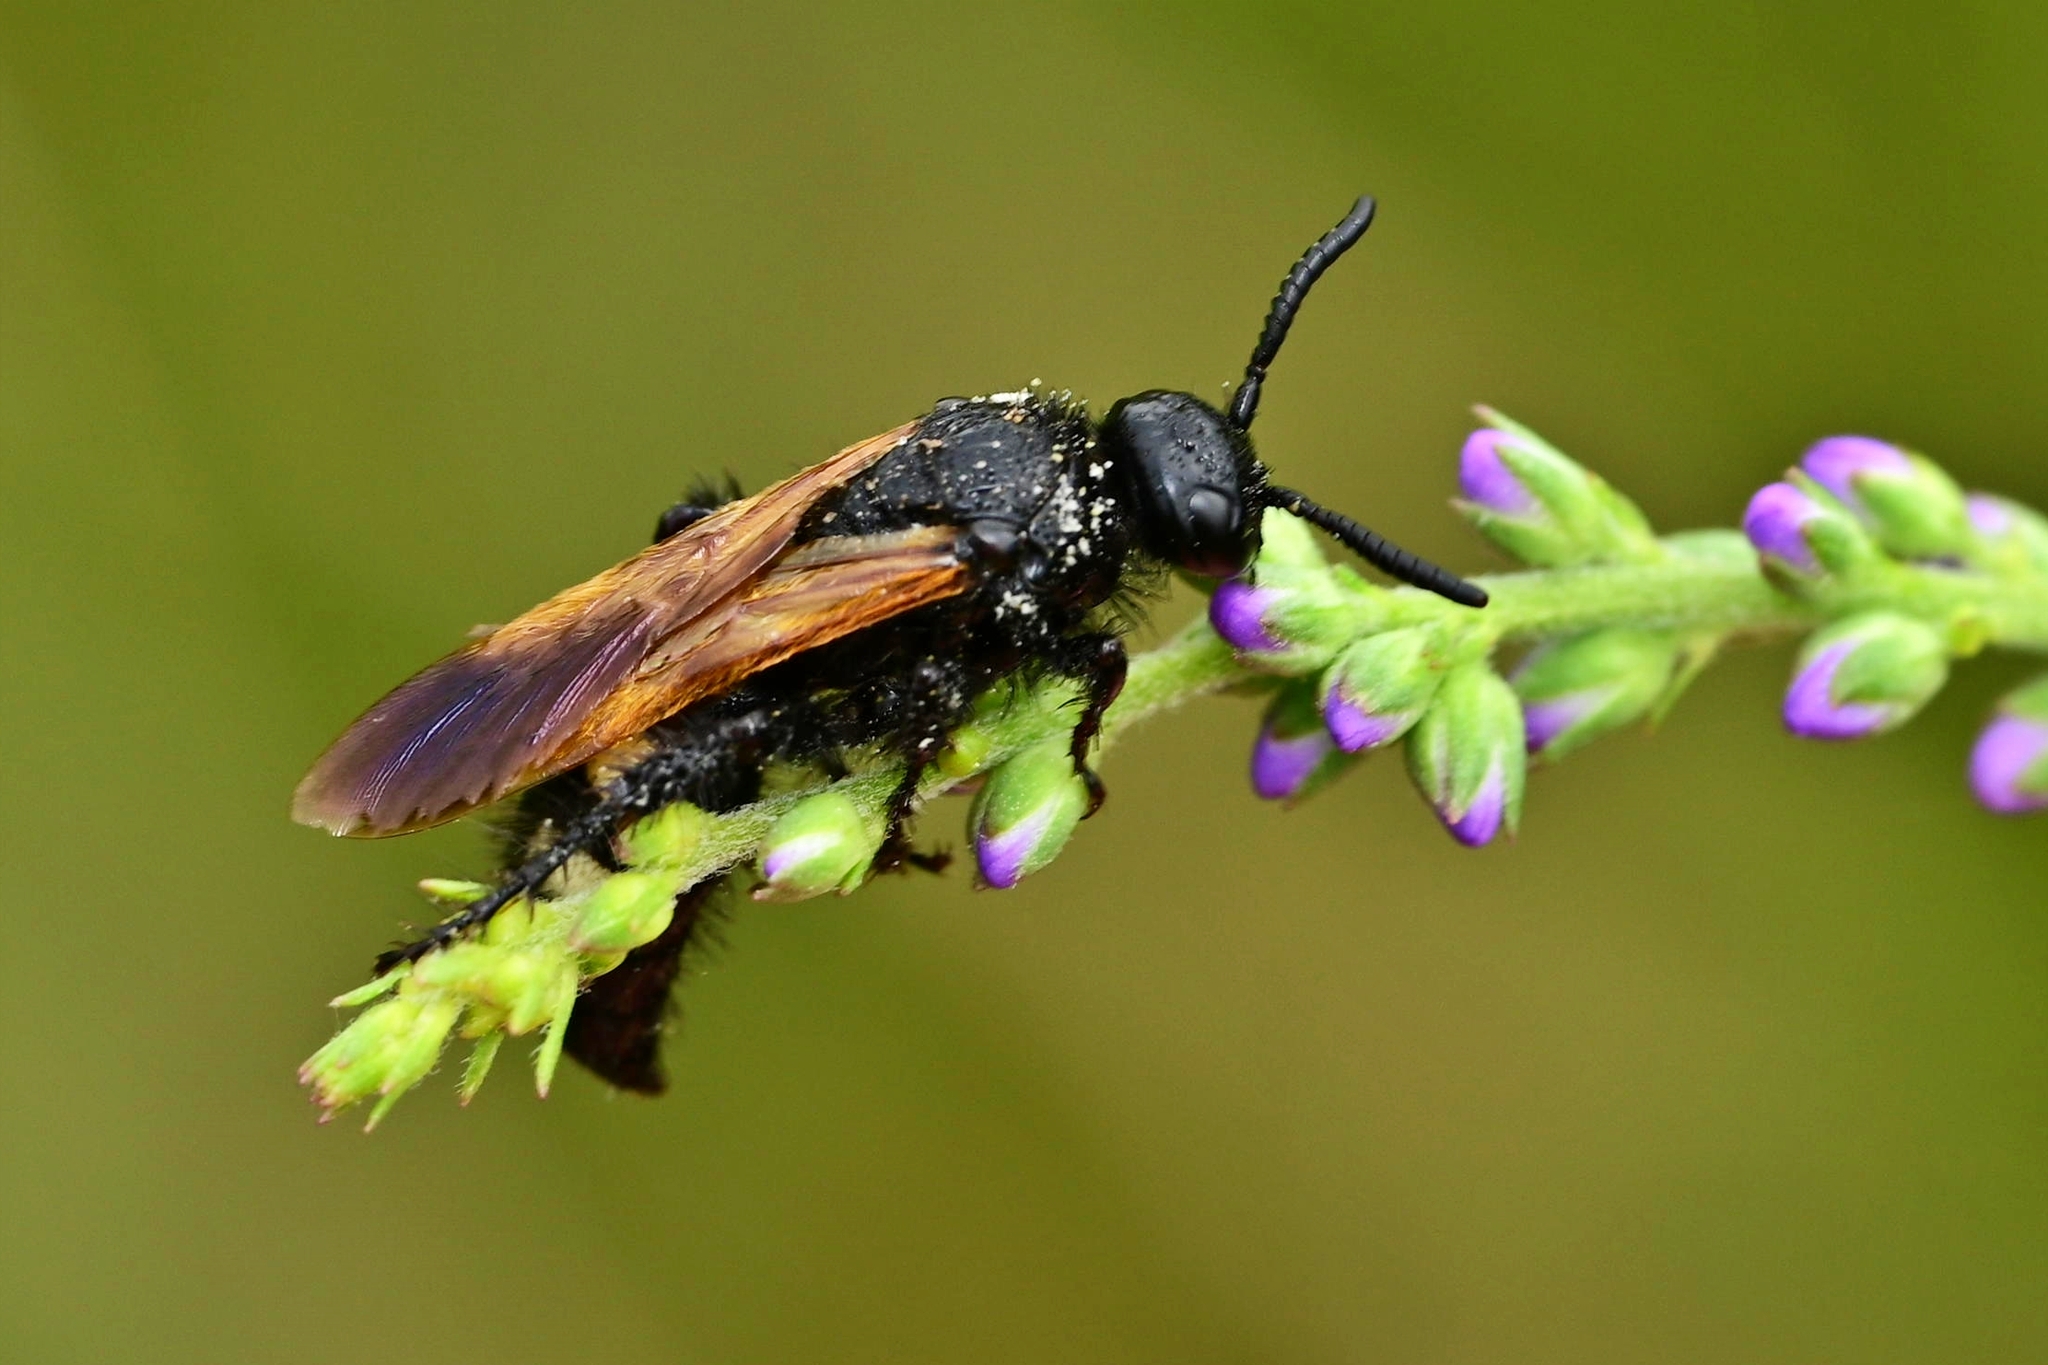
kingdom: Animalia
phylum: Arthropoda
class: Insecta
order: Hymenoptera
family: Vespidae
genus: Vespa
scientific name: Vespa sexmaculata
